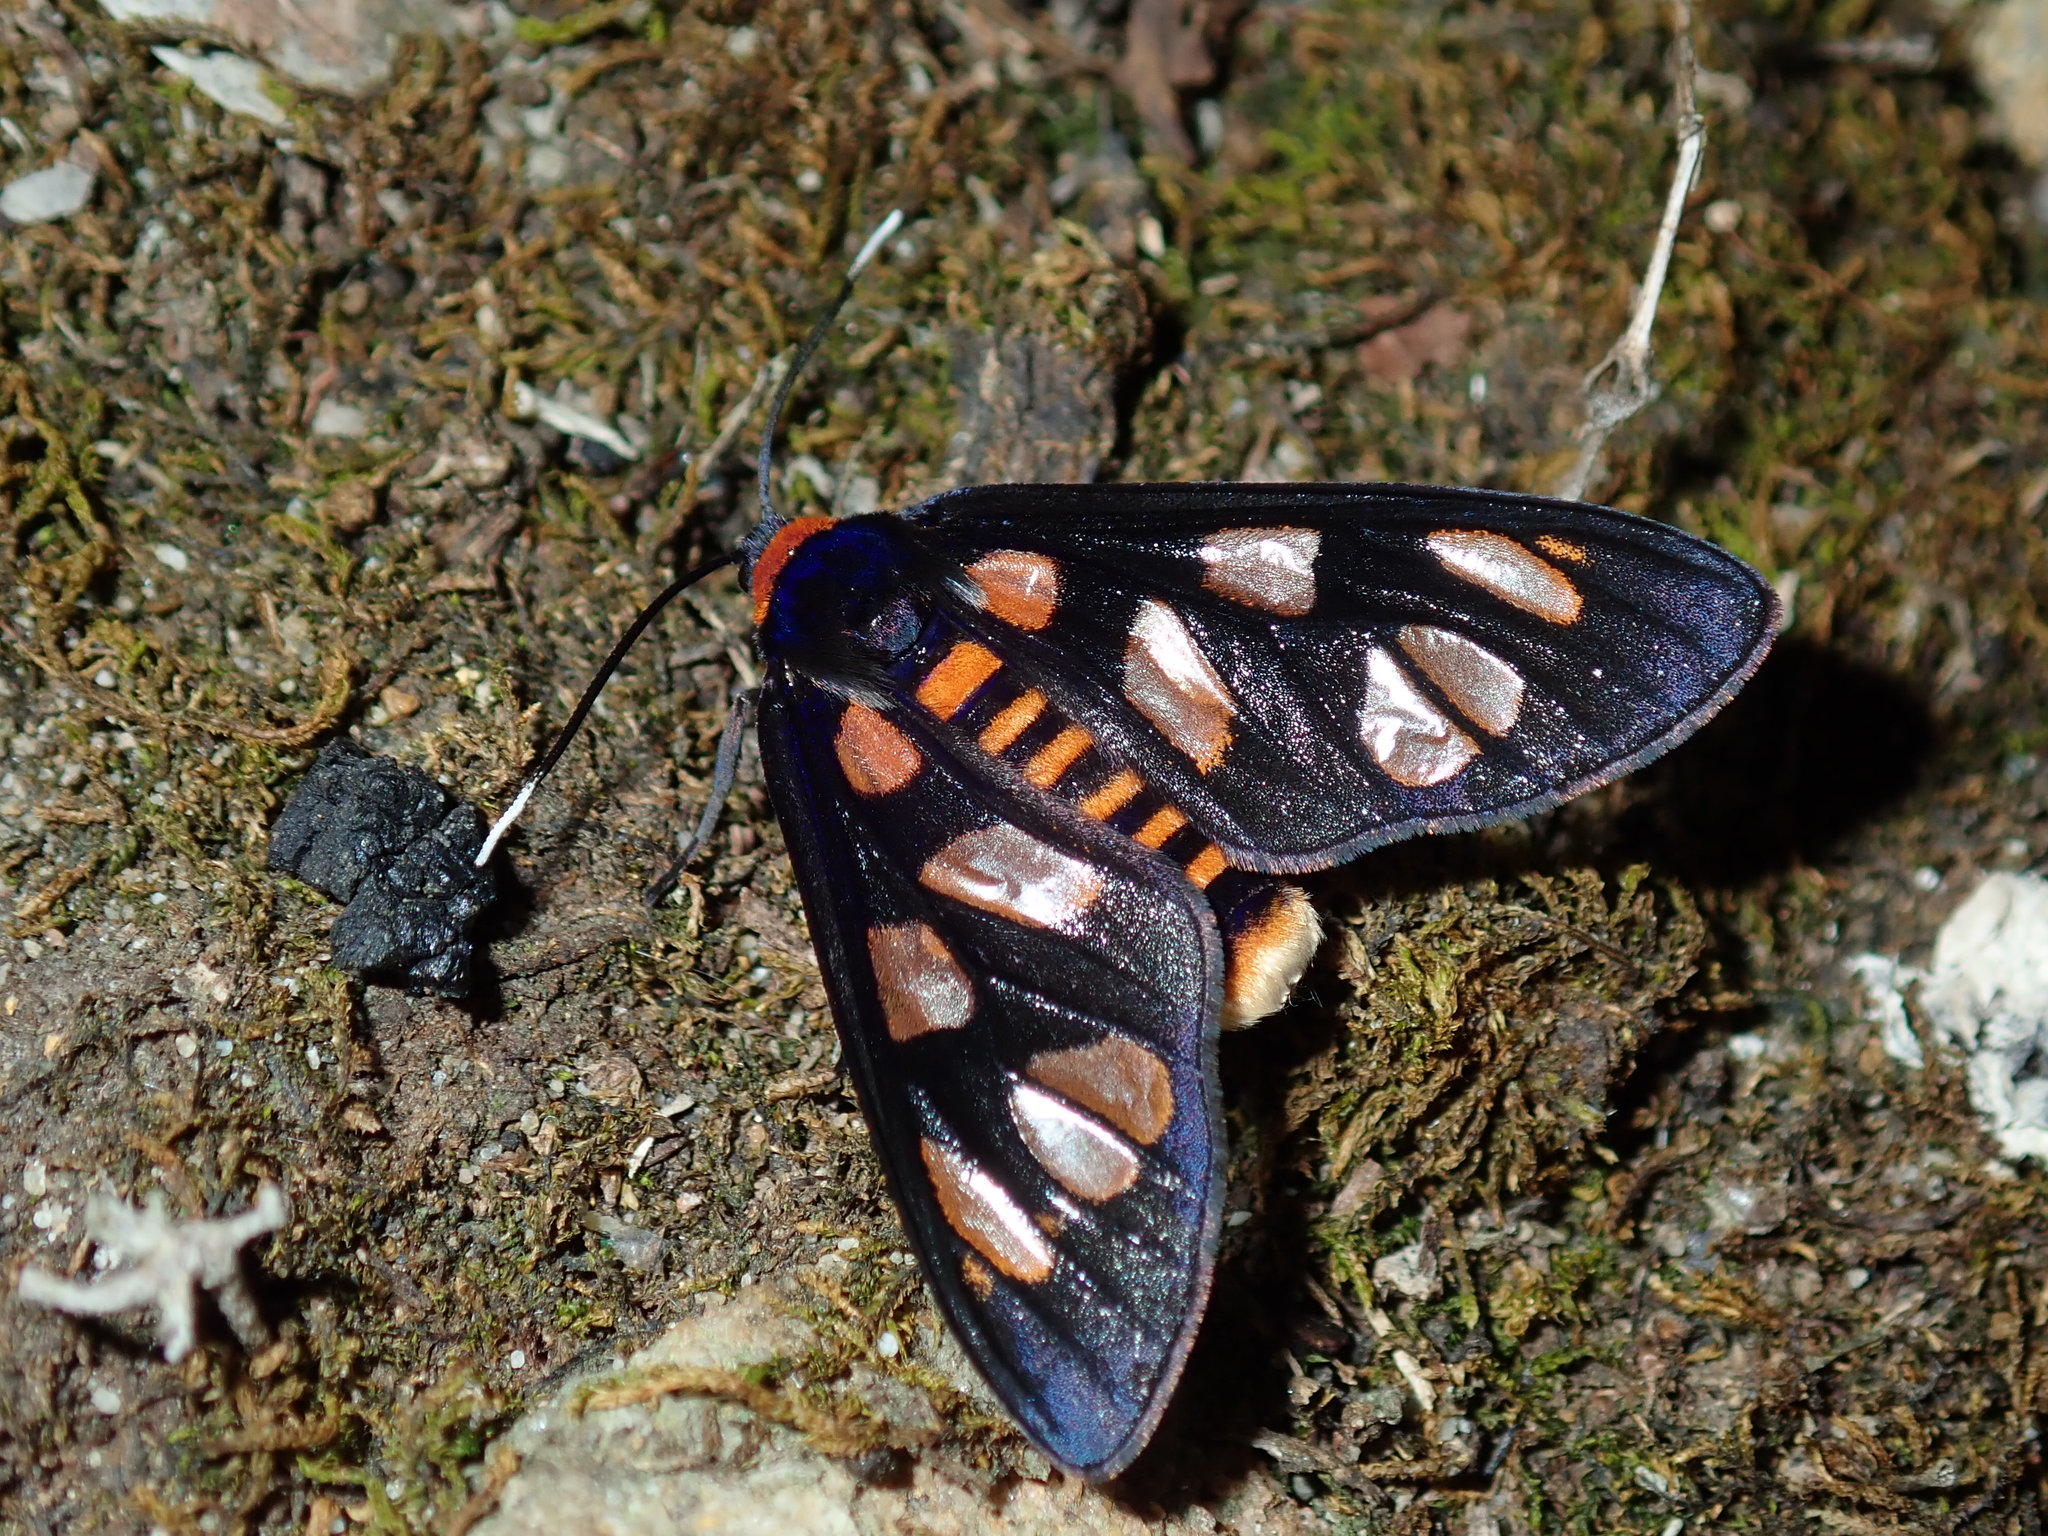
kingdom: Animalia
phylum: Arthropoda
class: Insecta
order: Lepidoptera
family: Erebidae
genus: Amata
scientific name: Amata nigriceps
